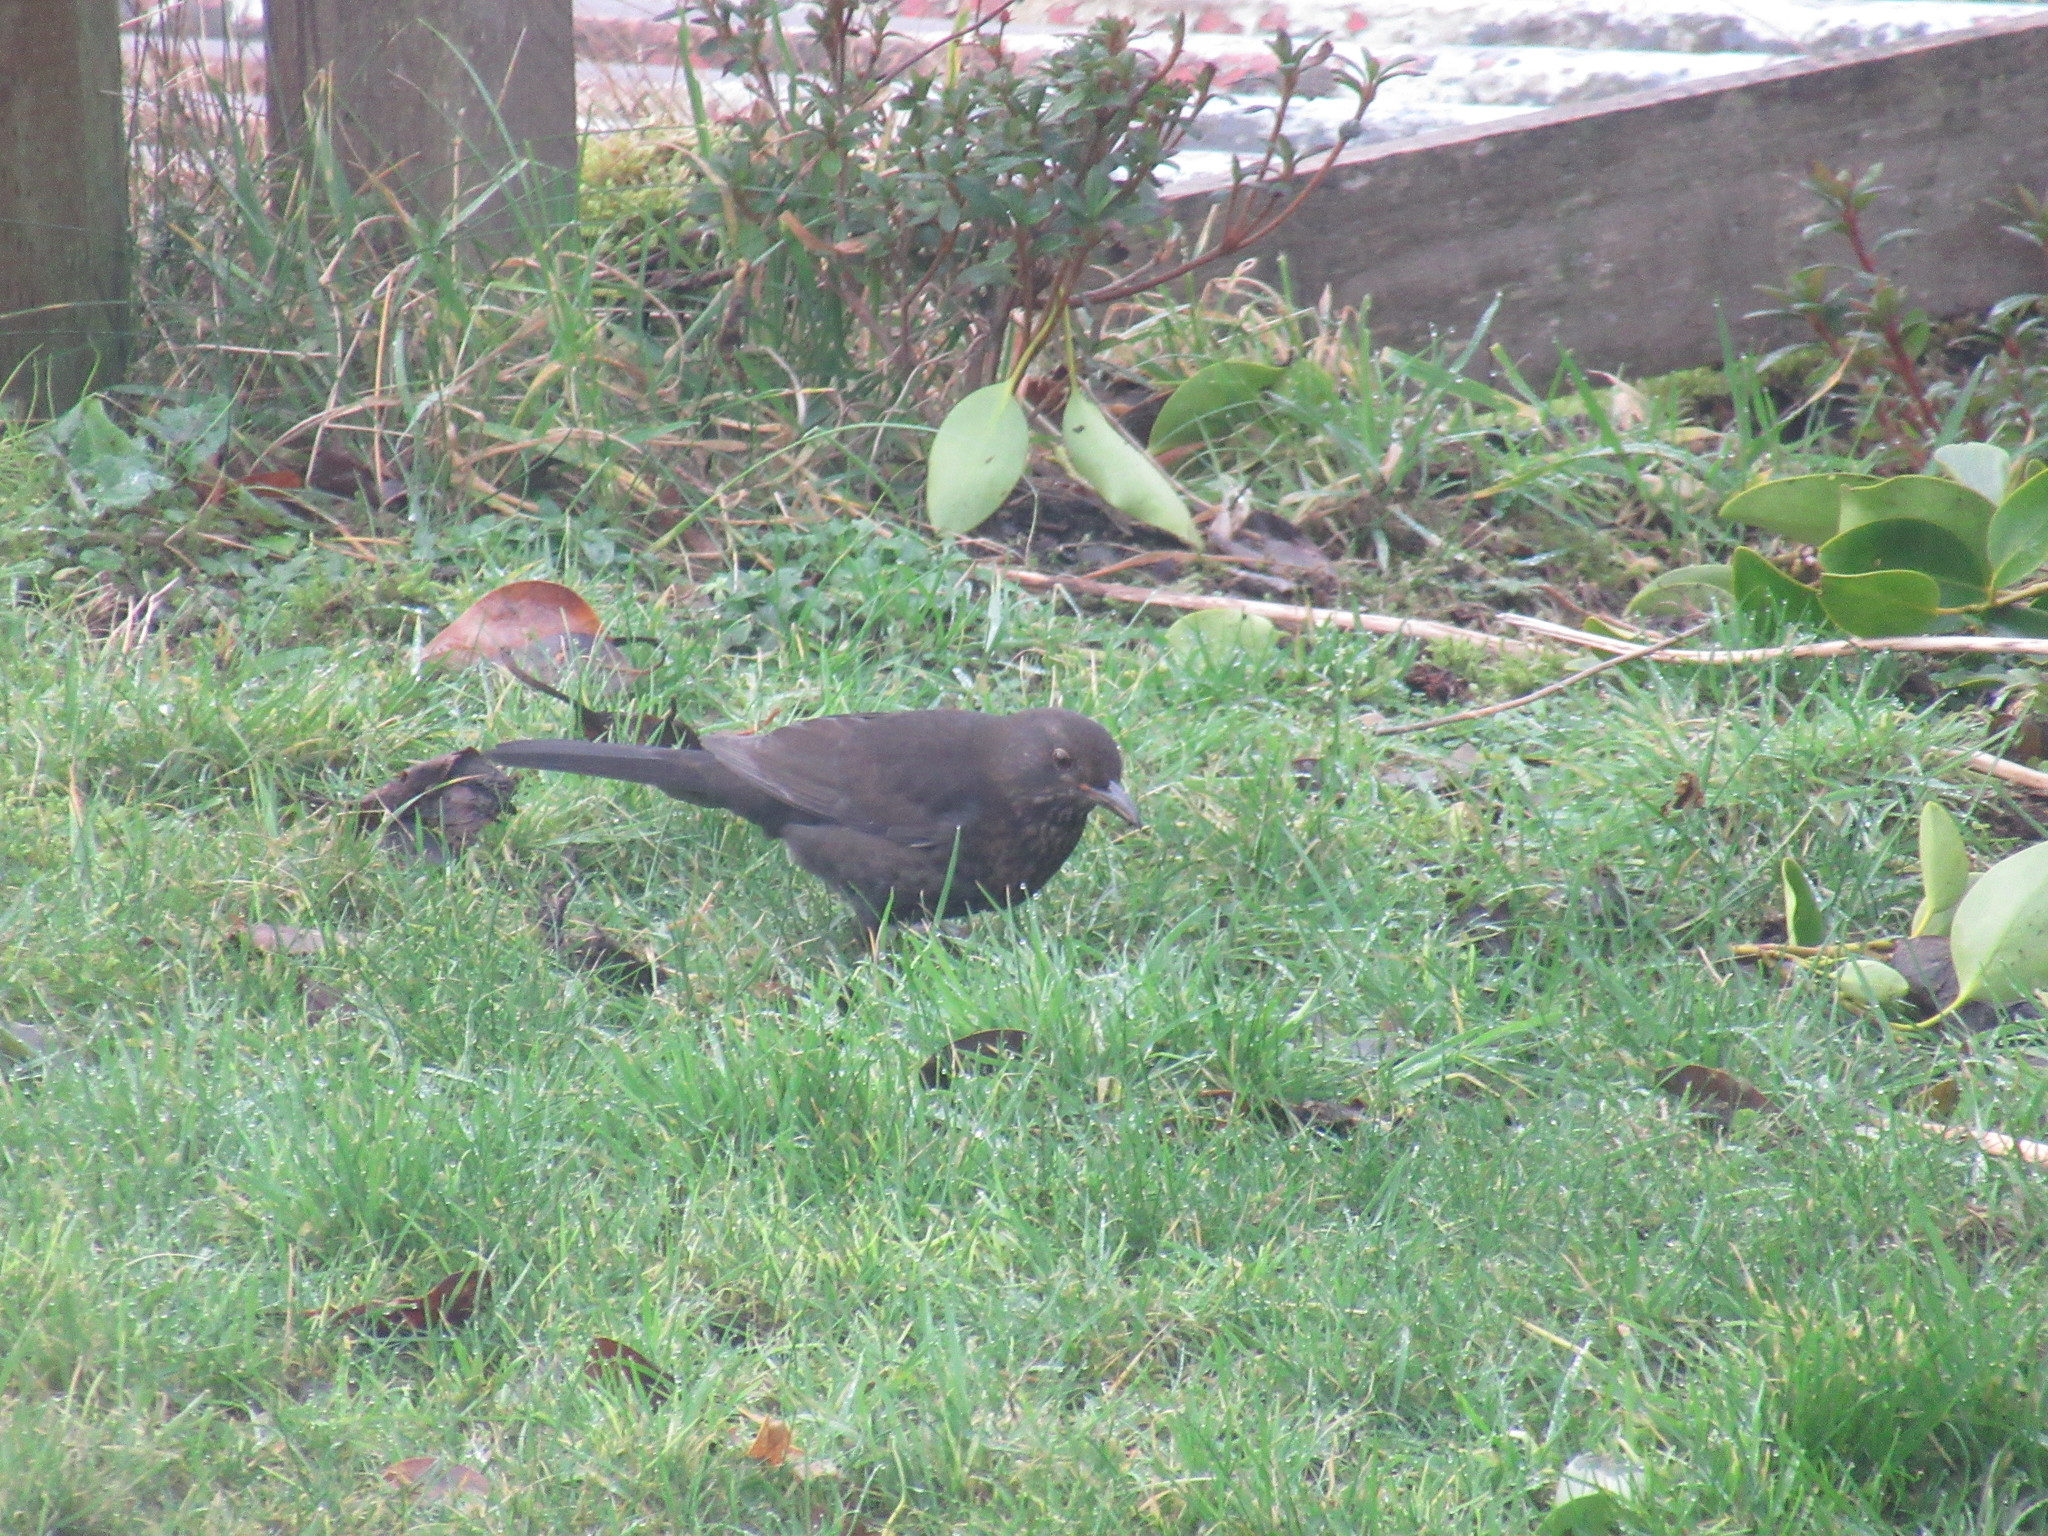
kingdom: Animalia
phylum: Chordata
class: Aves
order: Passeriformes
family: Turdidae
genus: Turdus
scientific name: Turdus merula
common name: Common blackbird
